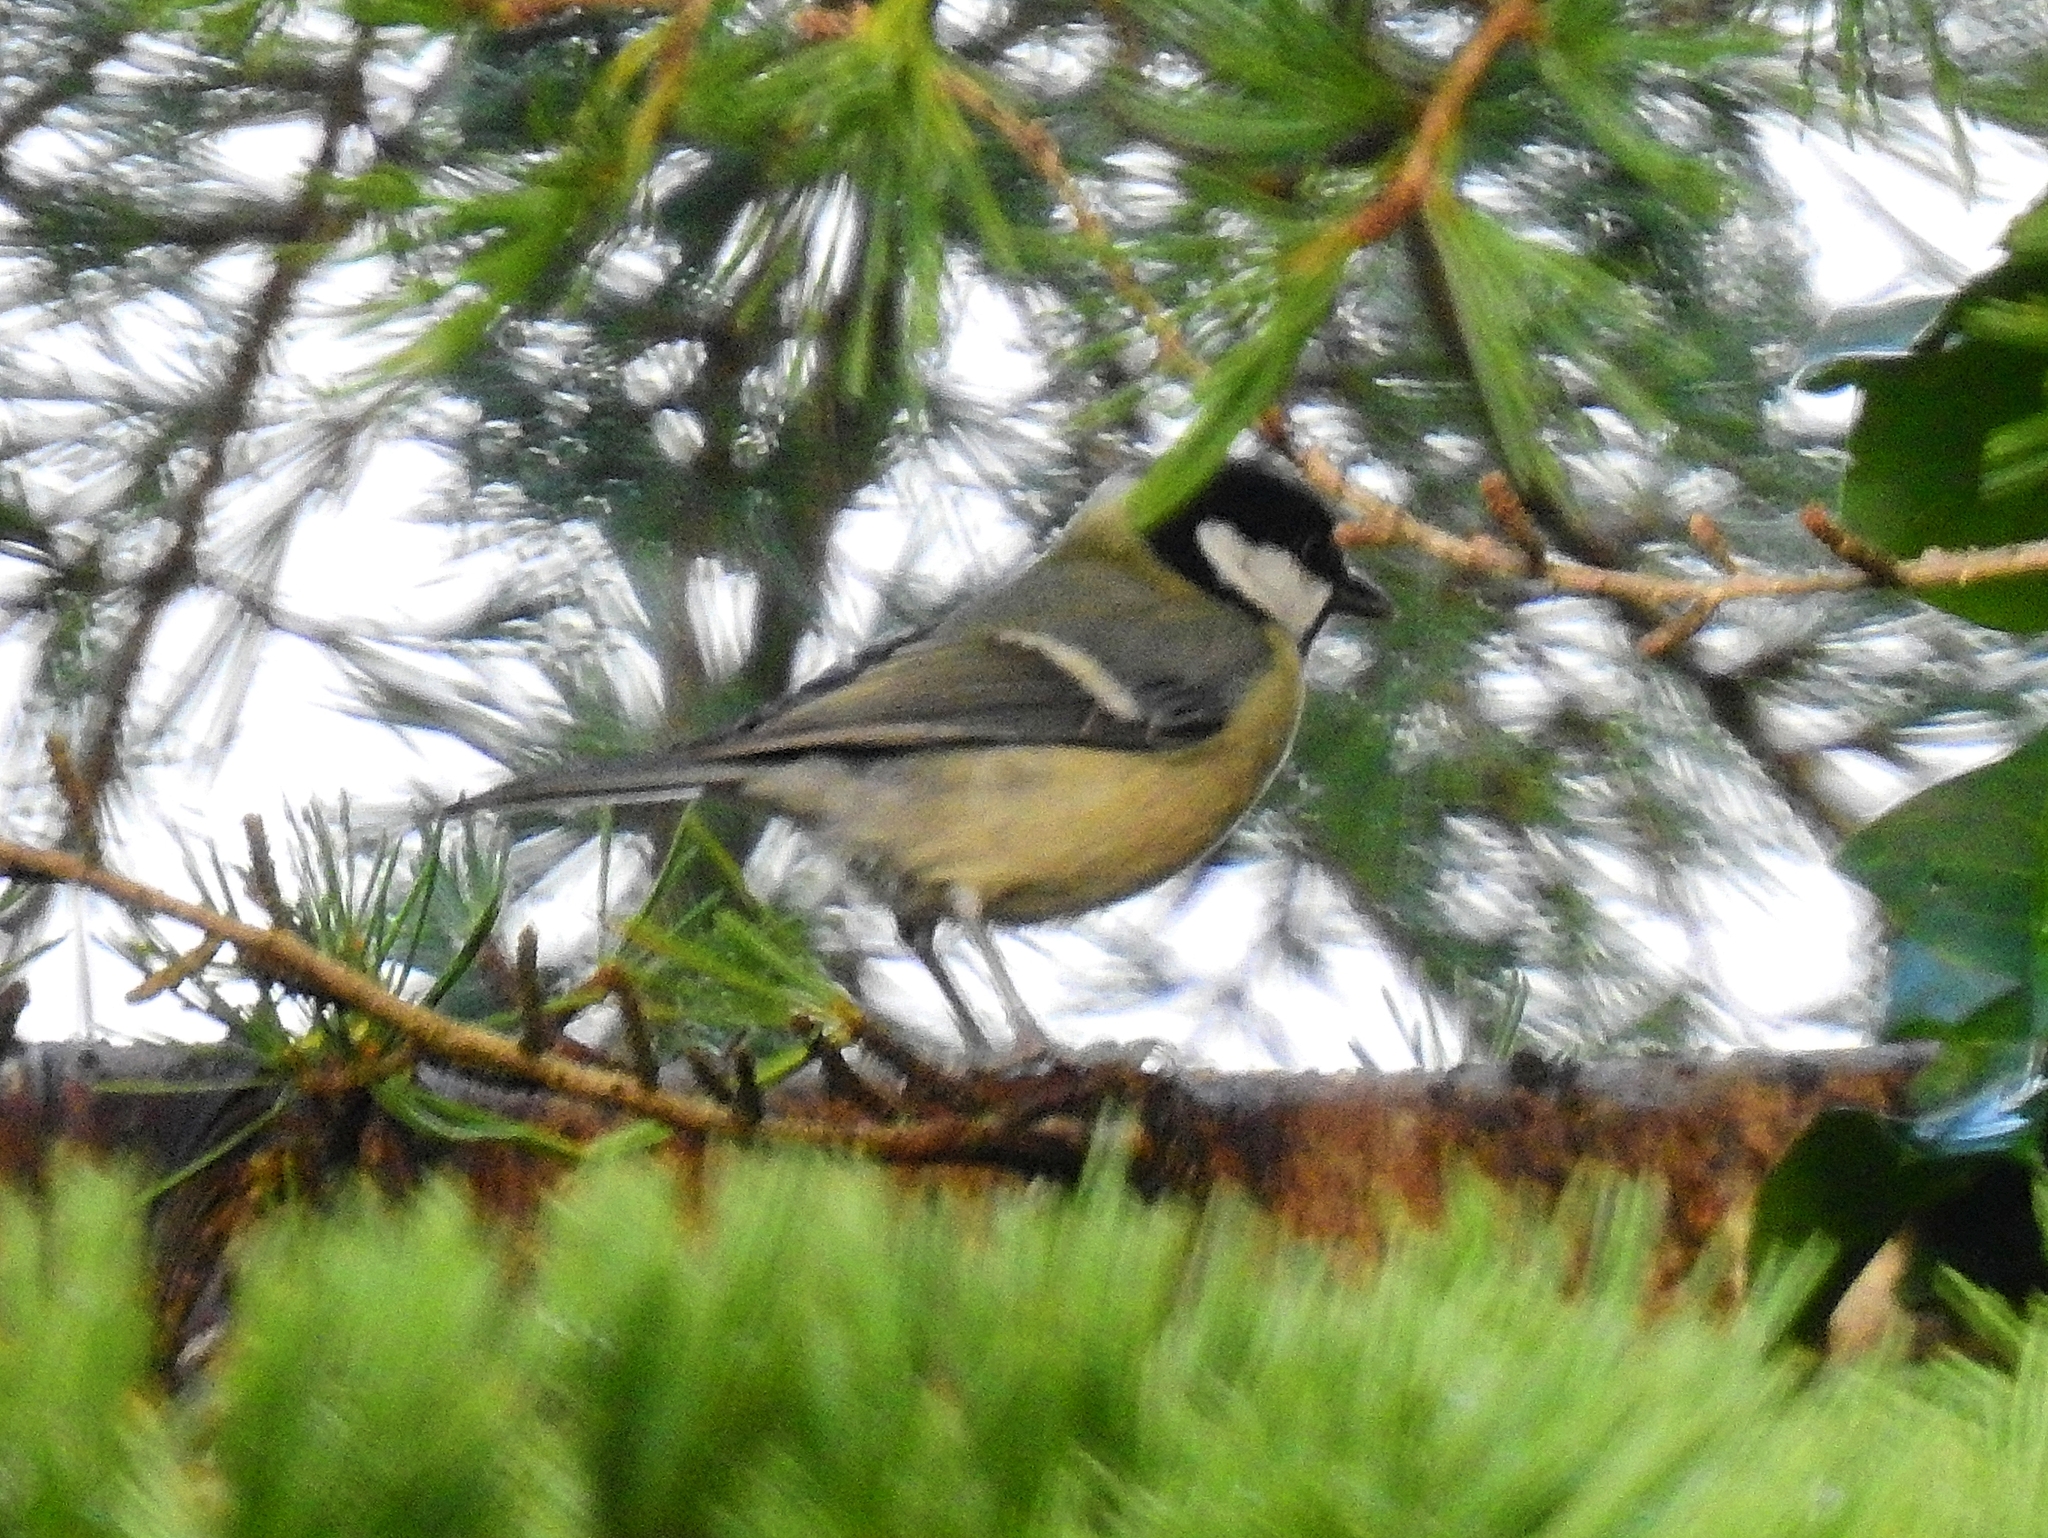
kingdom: Animalia
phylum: Chordata
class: Aves
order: Passeriformes
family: Paridae
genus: Parus
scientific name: Parus major
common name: Great tit
